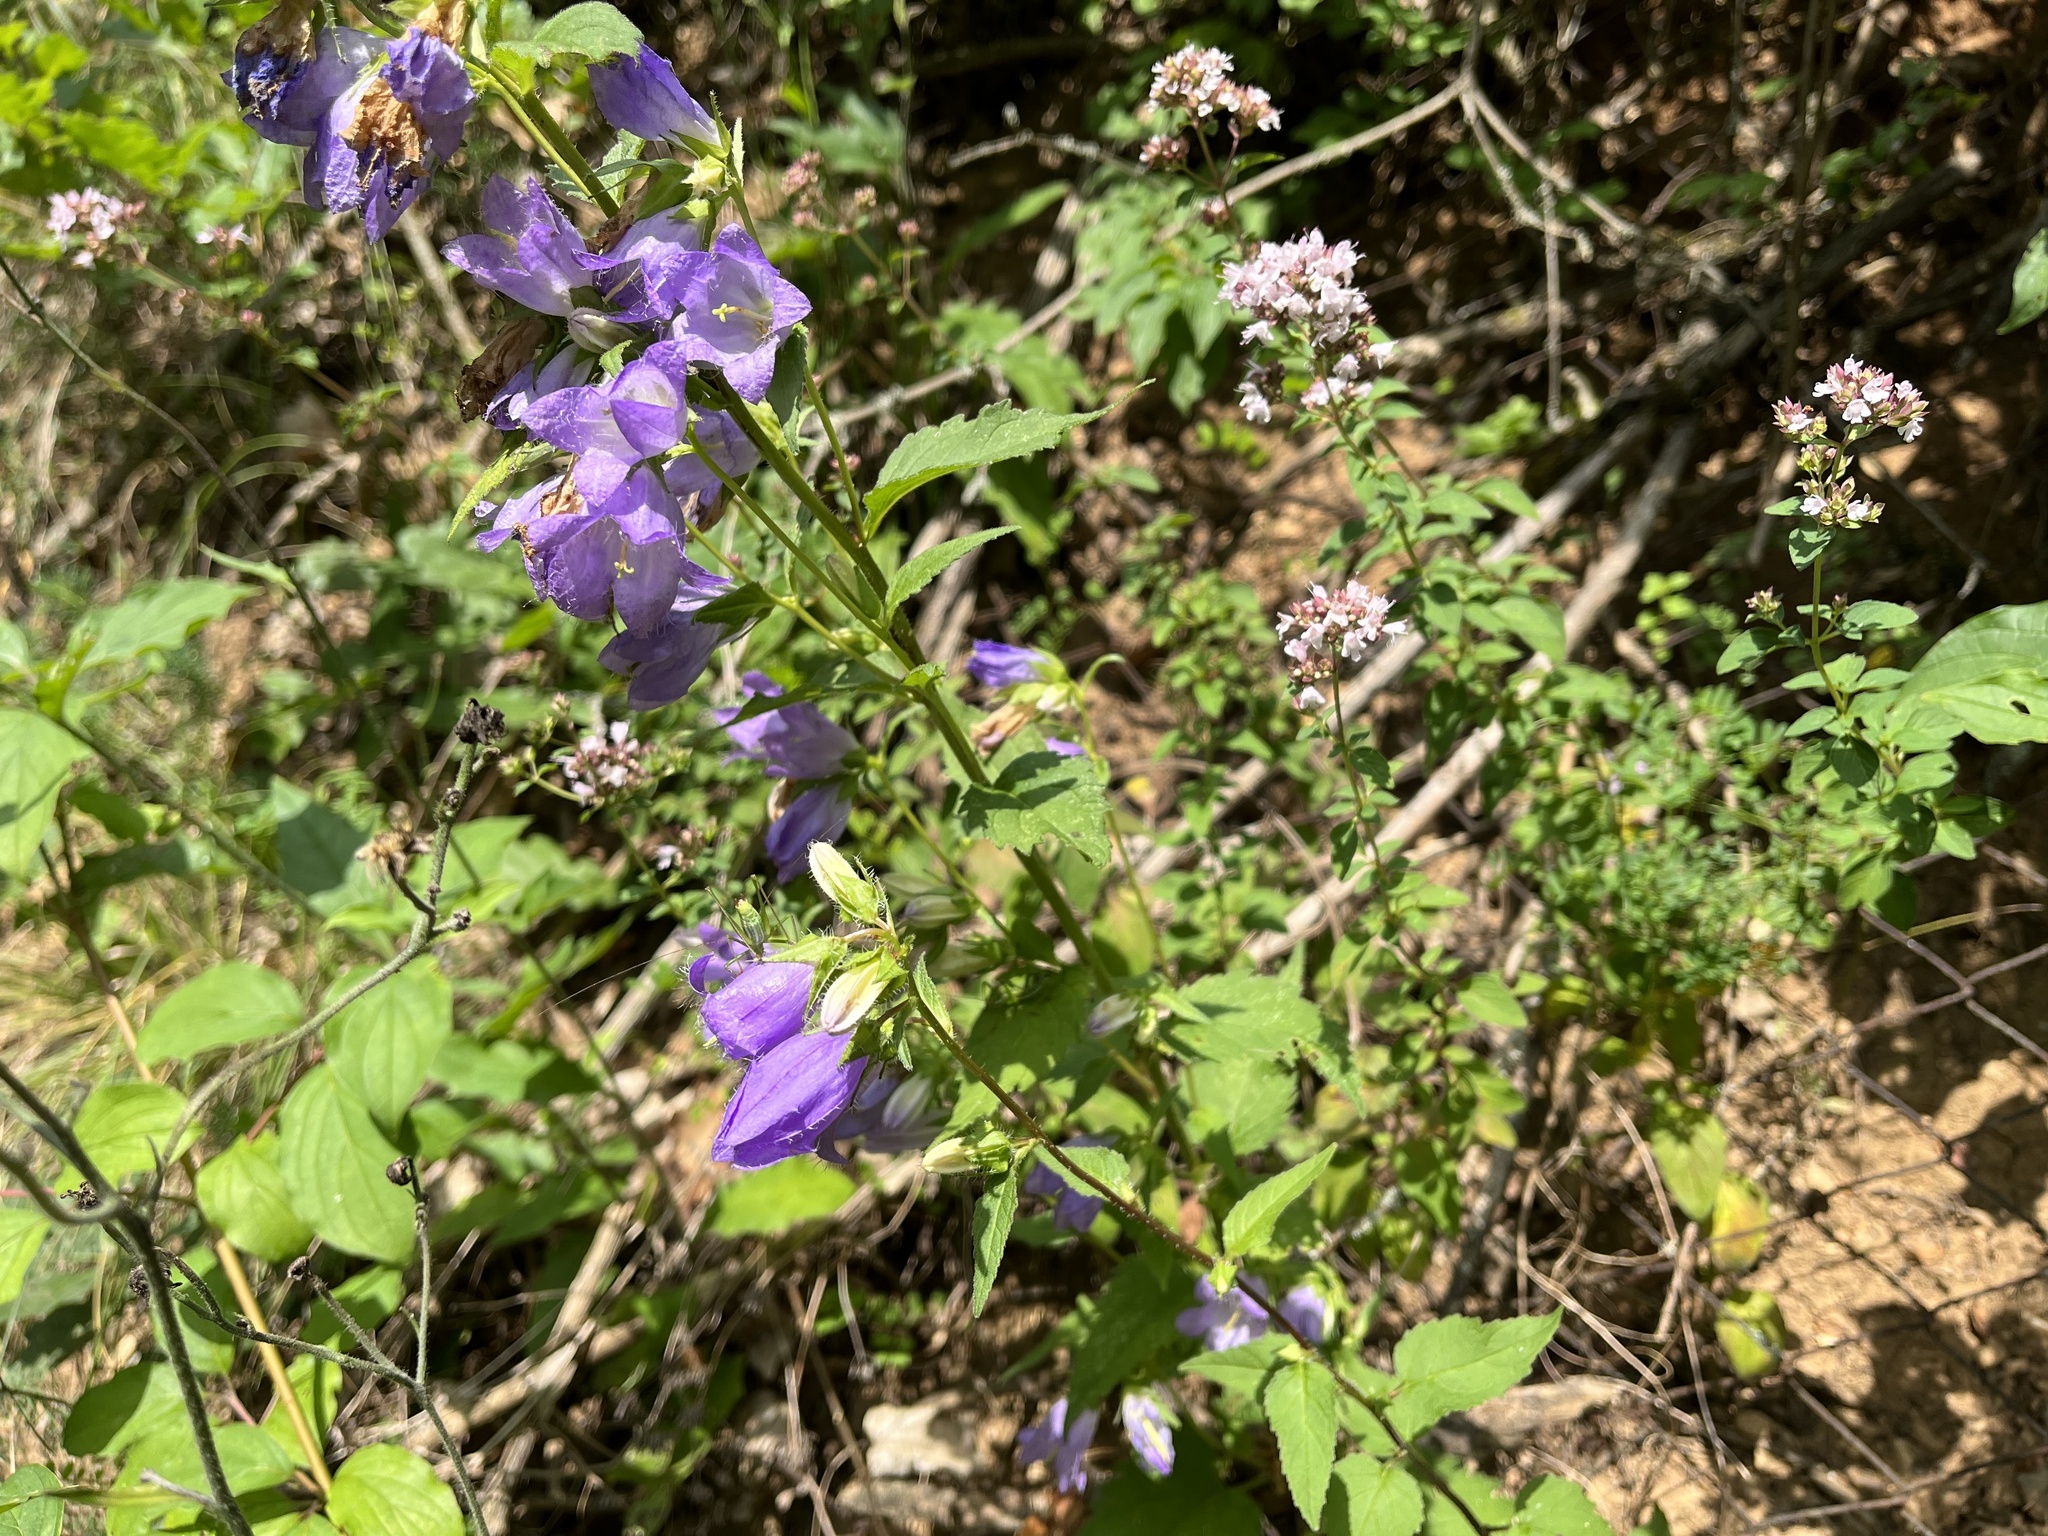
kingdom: Plantae
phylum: Tracheophyta
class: Magnoliopsida
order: Asterales
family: Campanulaceae
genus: Campanula
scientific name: Campanula trachelium
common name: Nettle-leaved bellflower
